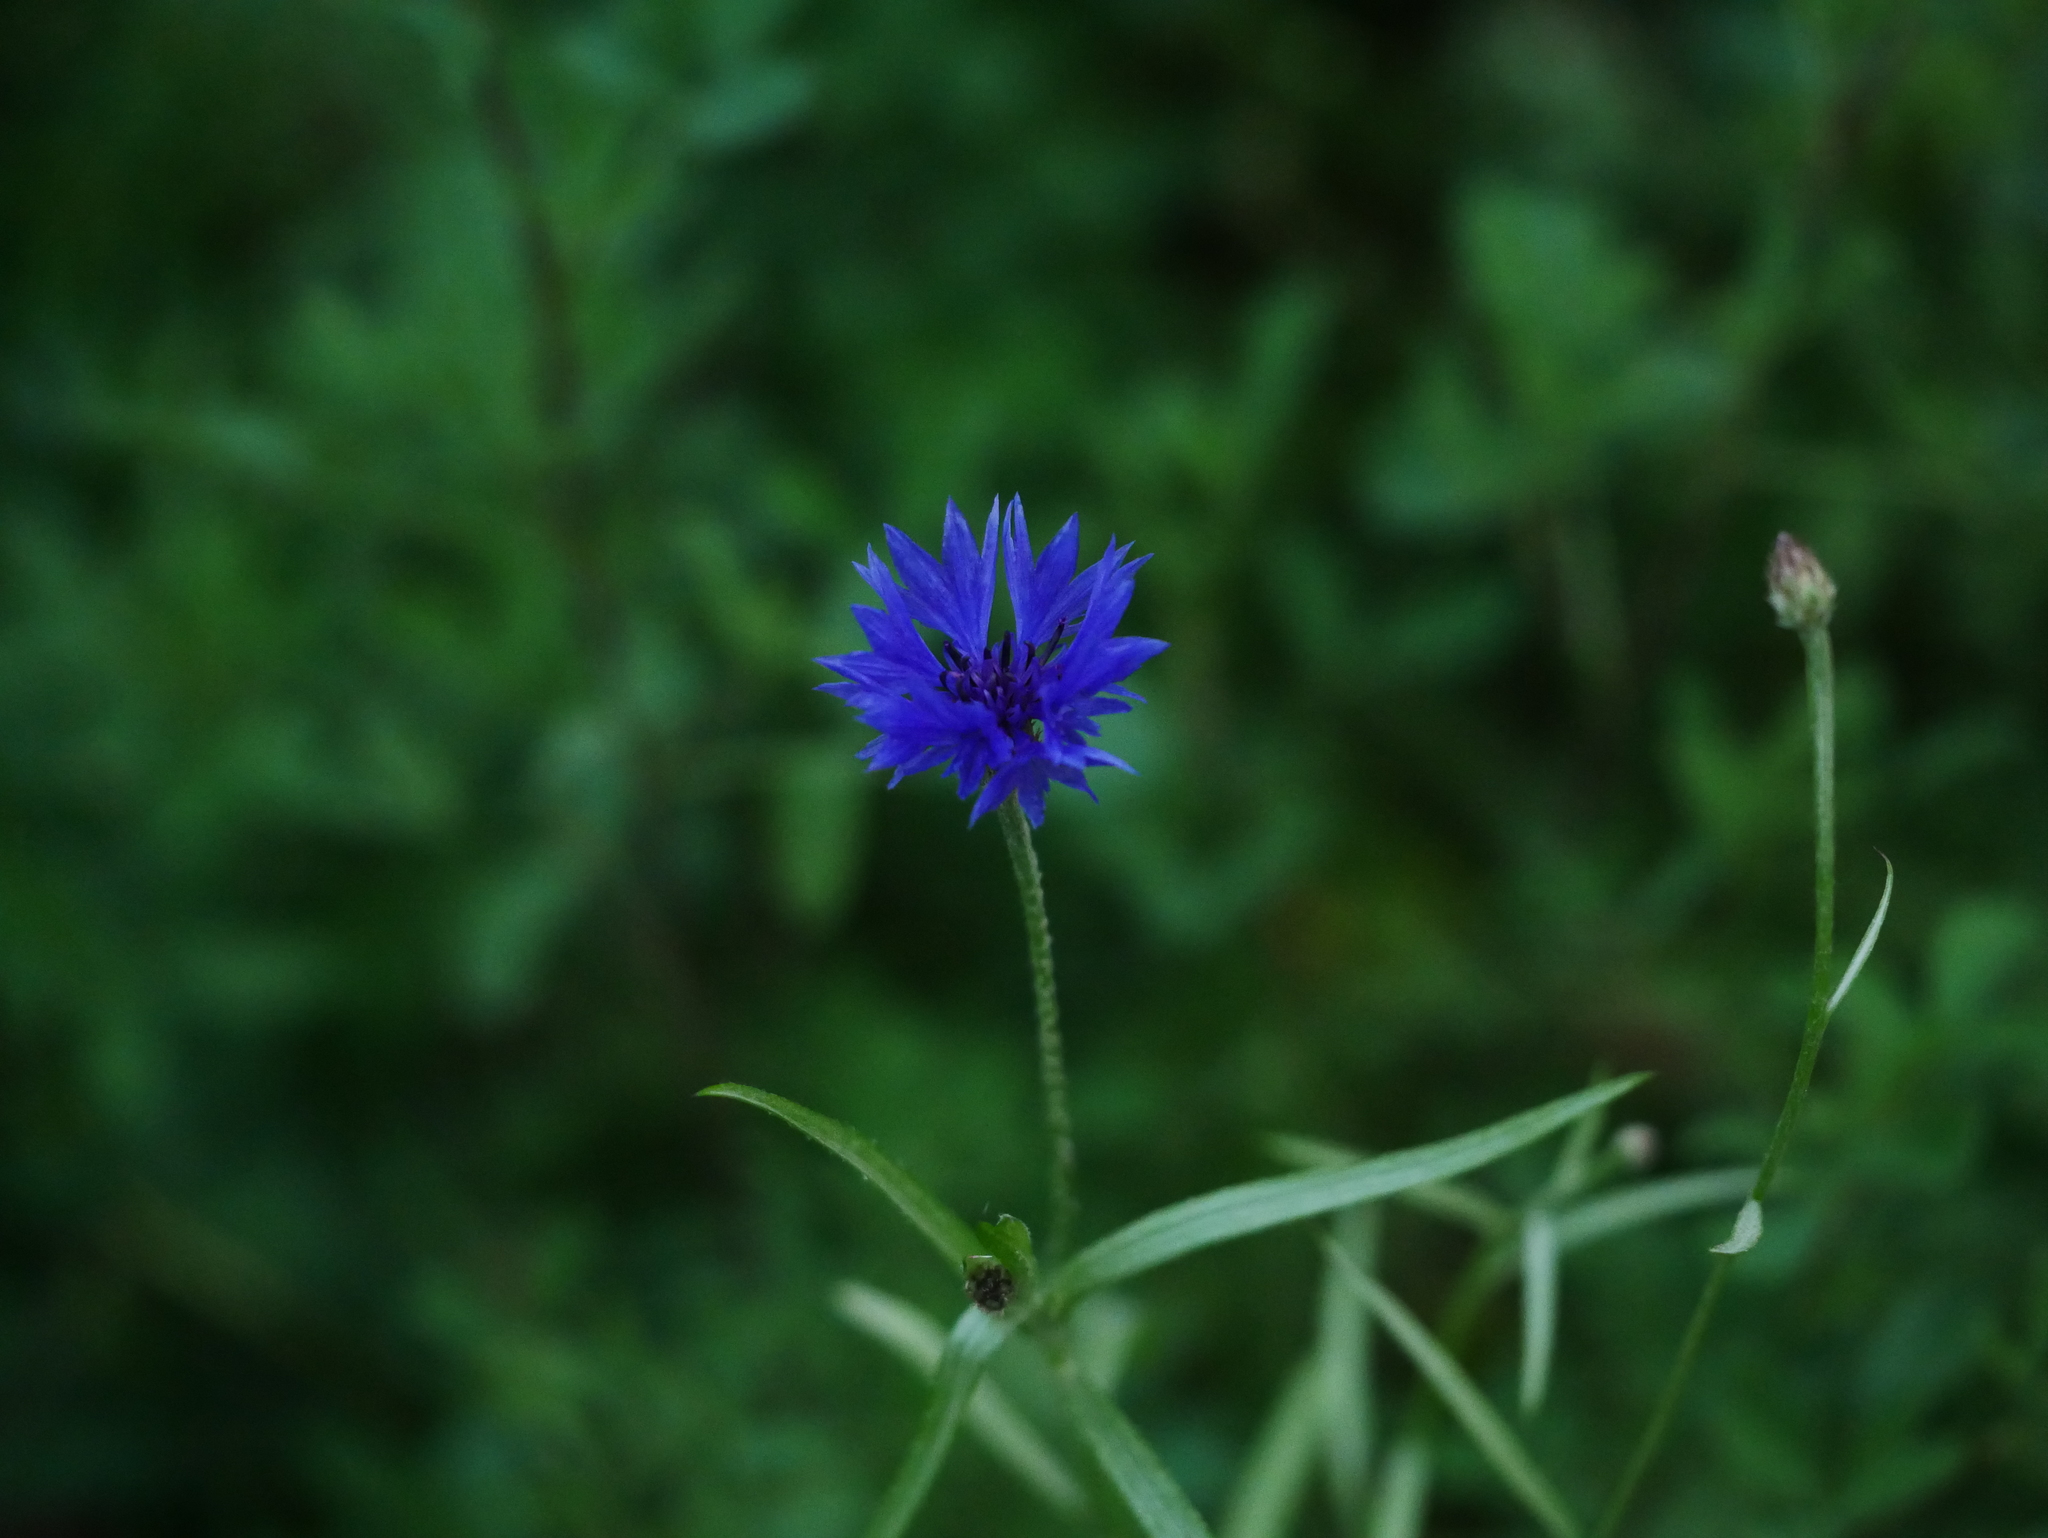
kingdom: Plantae
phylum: Tracheophyta
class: Magnoliopsida
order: Asterales
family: Asteraceae
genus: Centaurea
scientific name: Centaurea cyanus
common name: Cornflower
